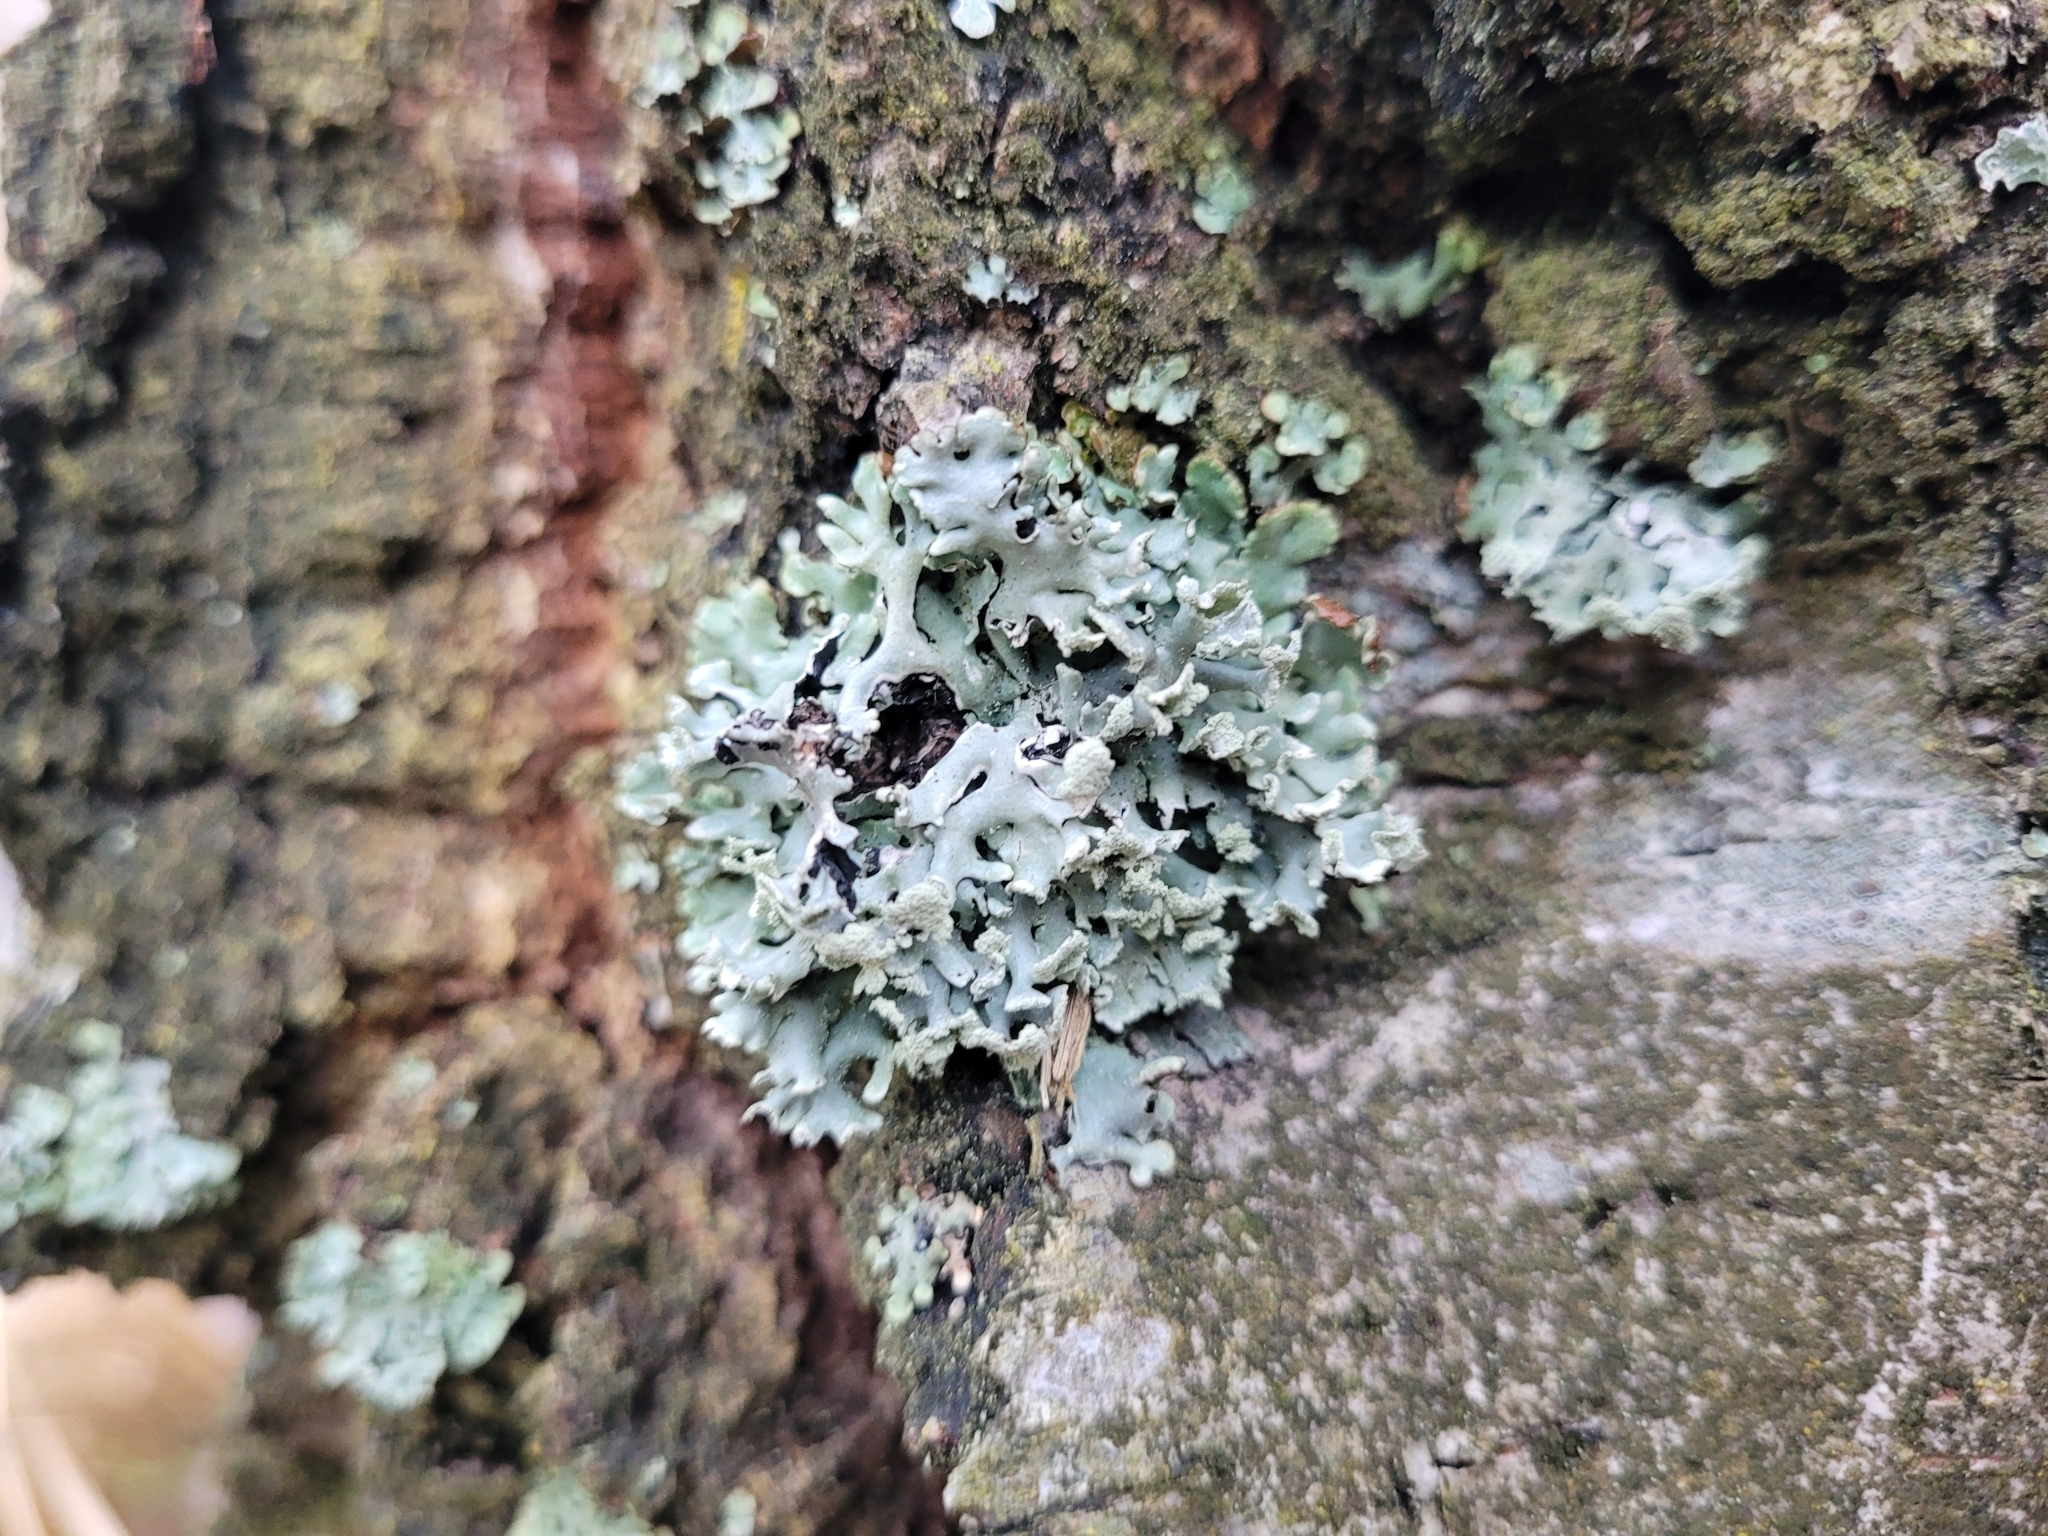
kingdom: Fungi
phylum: Ascomycota
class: Lecanoromycetes
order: Lecanorales
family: Parmeliaceae
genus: Hypogymnia
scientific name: Hypogymnia physodes
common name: Dark crottle
